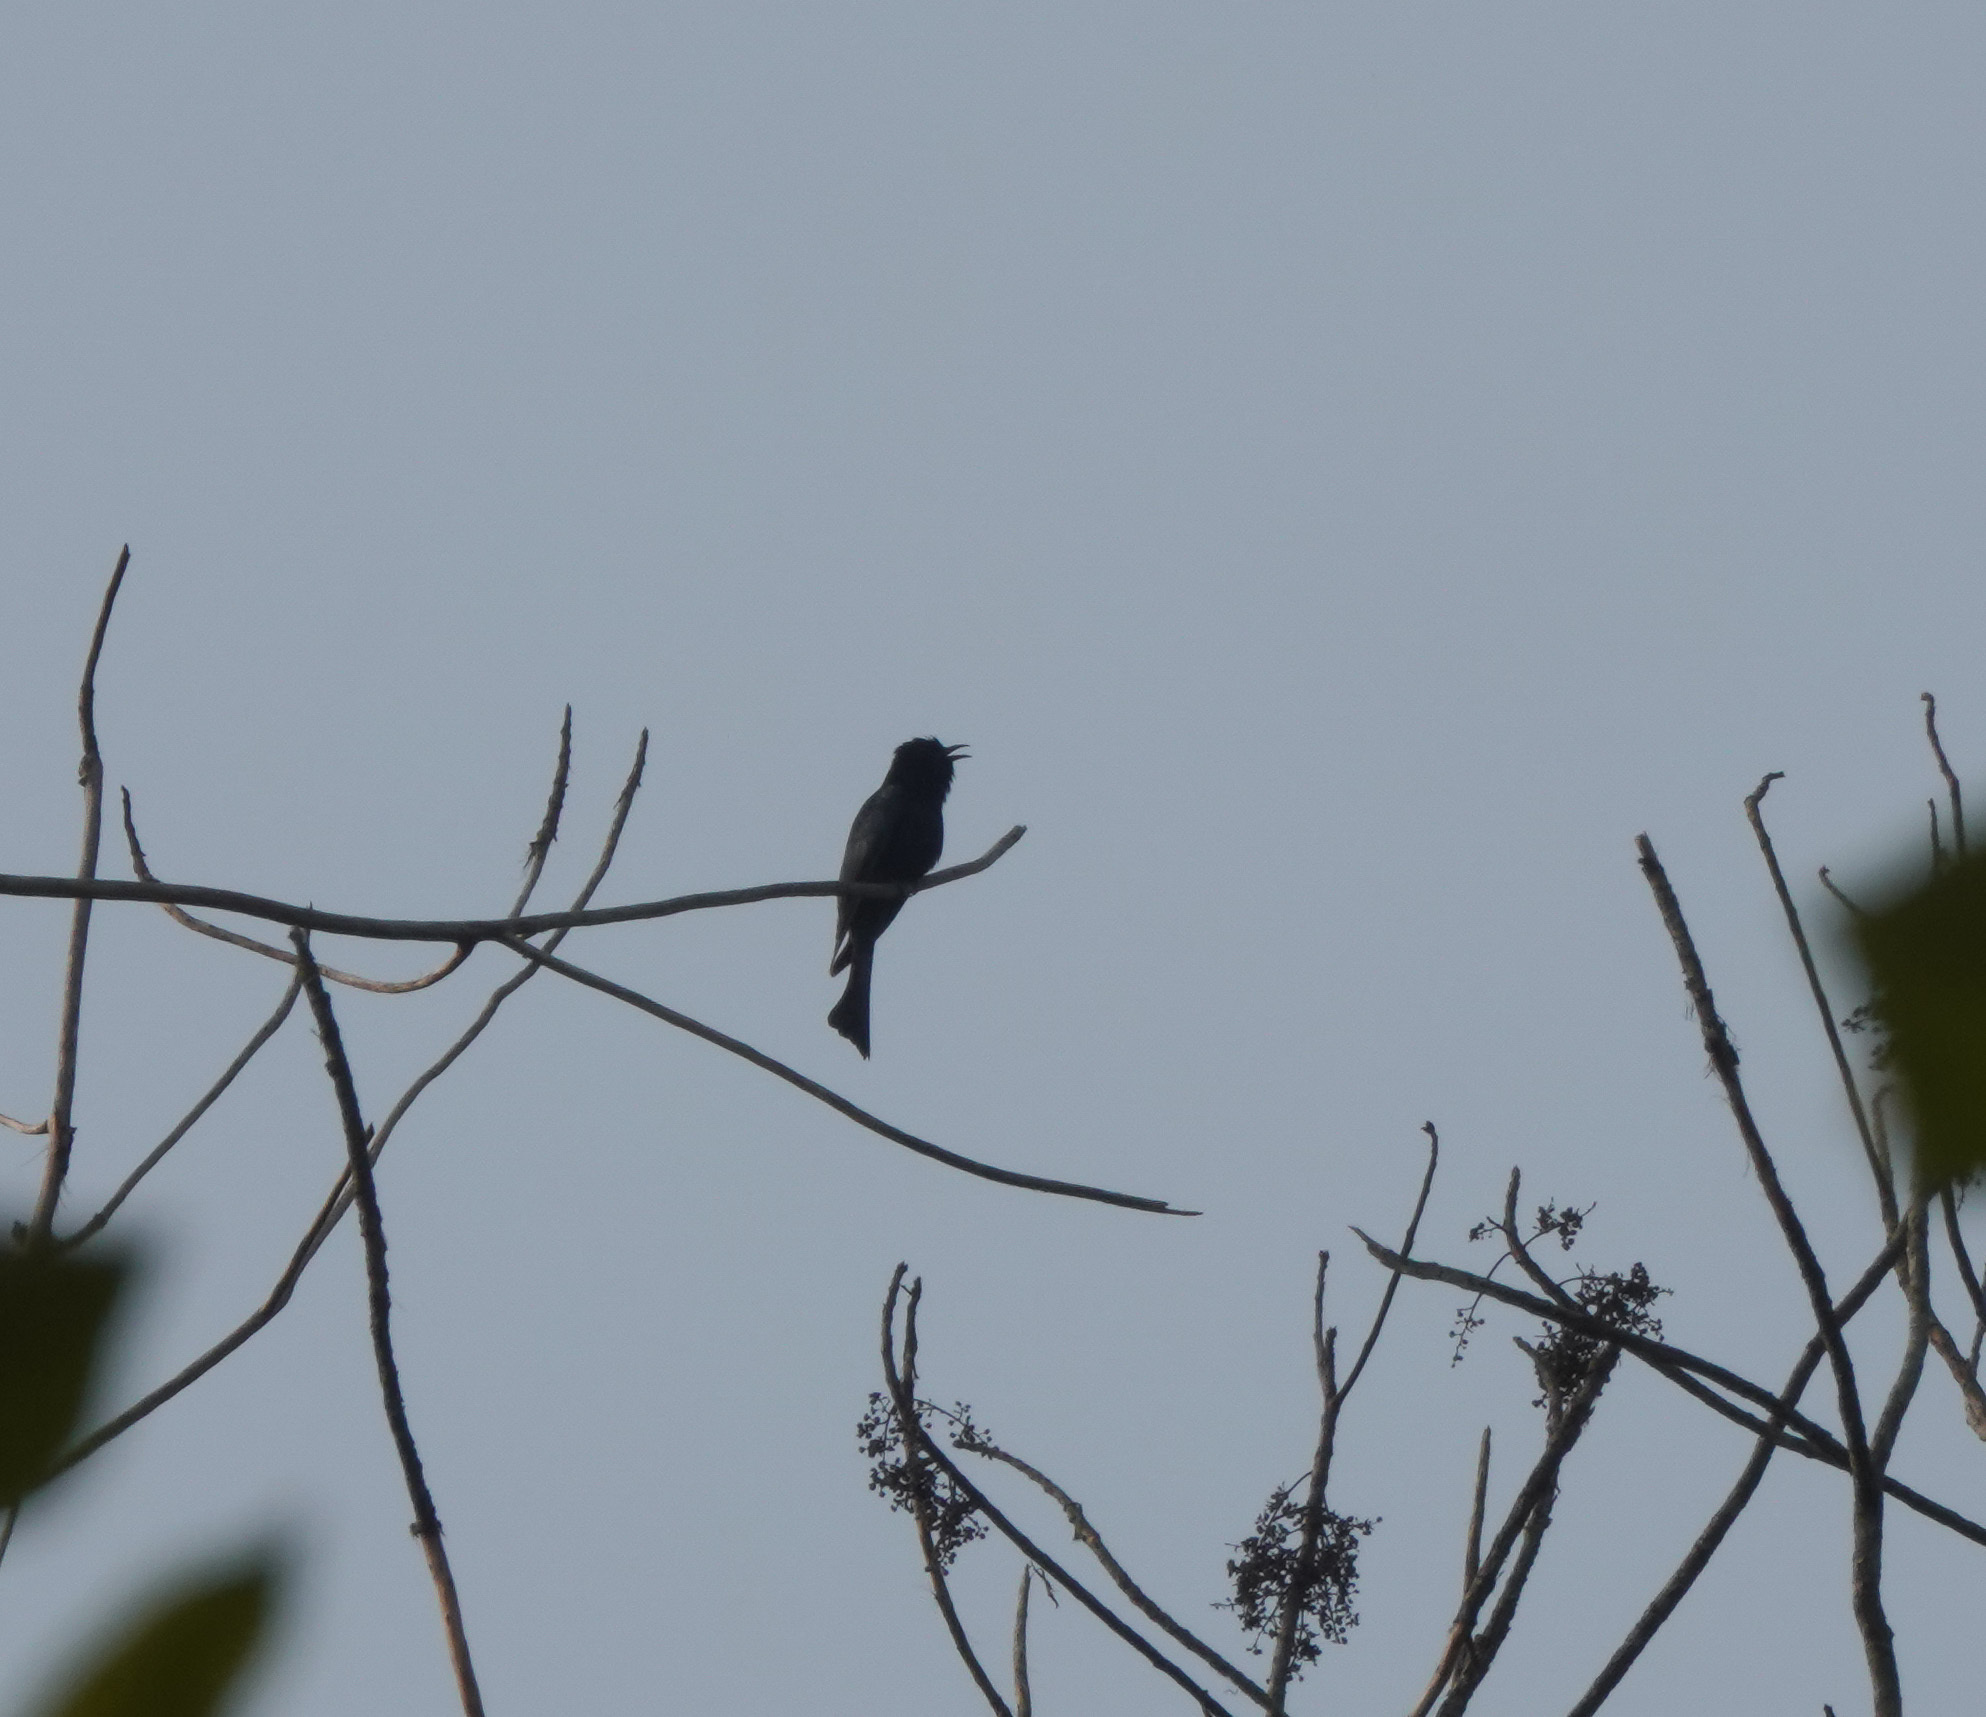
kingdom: Animalia
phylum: Chordata
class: Aves
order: Cuculiformes
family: Cuculidae
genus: Surniculus
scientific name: Surniculus lugubris
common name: Square-tailed drongo-cuckoo
